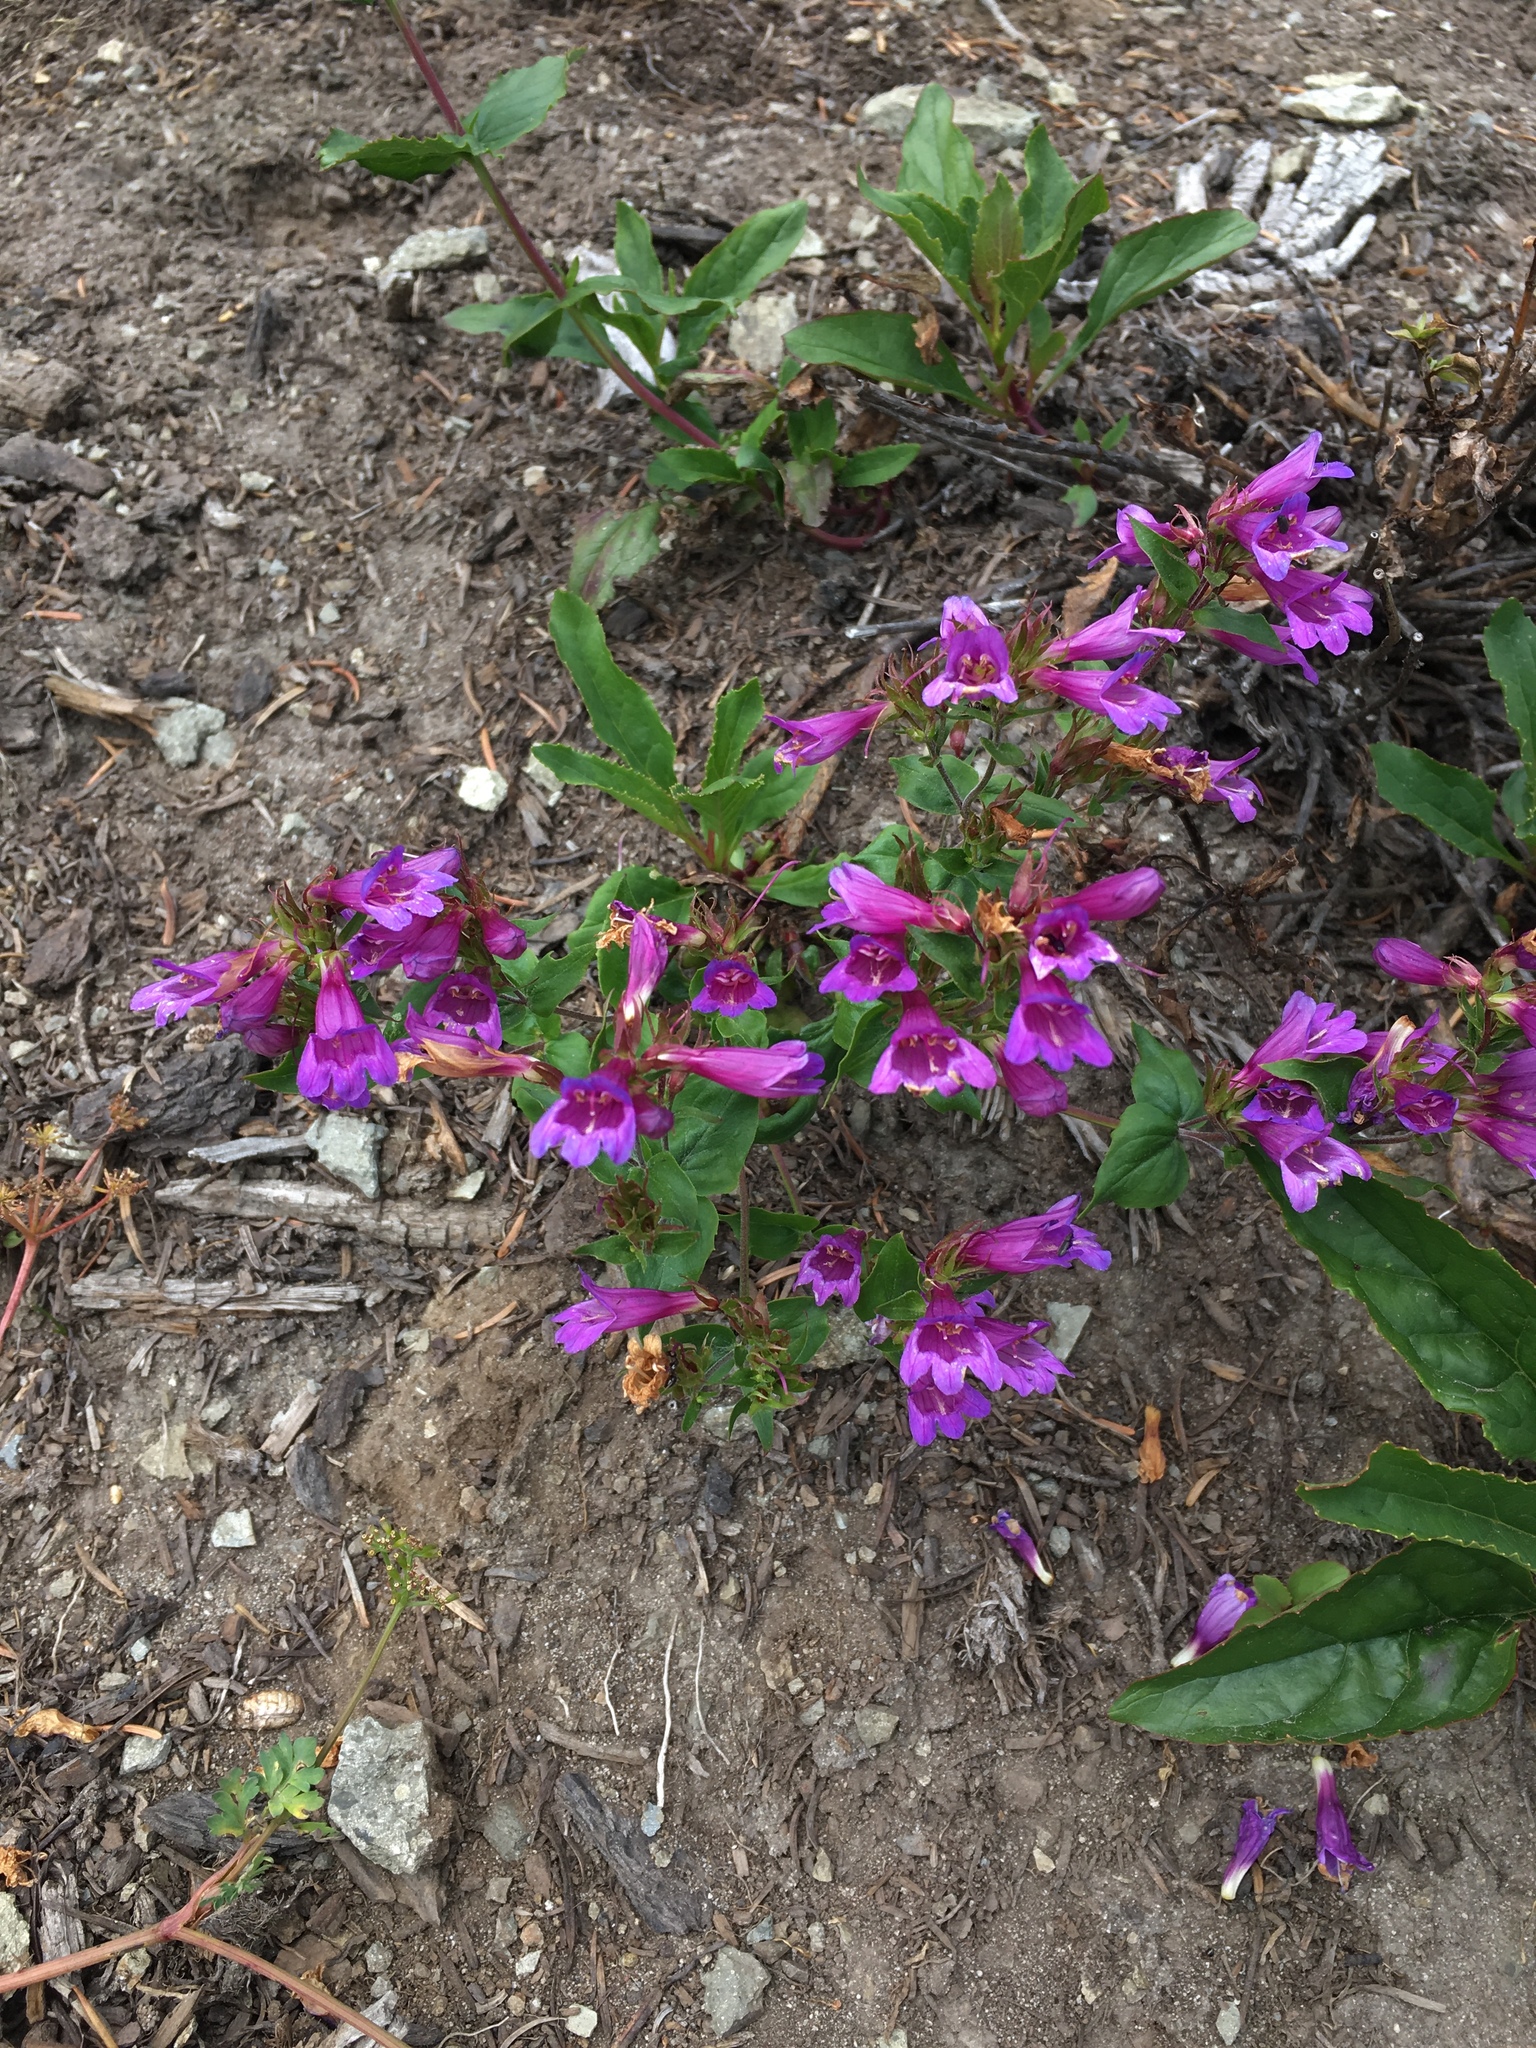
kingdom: Plantae
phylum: Tracheophyta
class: Magnoliopsida
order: Lamiales
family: Plantaginaceae
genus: Penstemon
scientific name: Penstemon serrulatus
